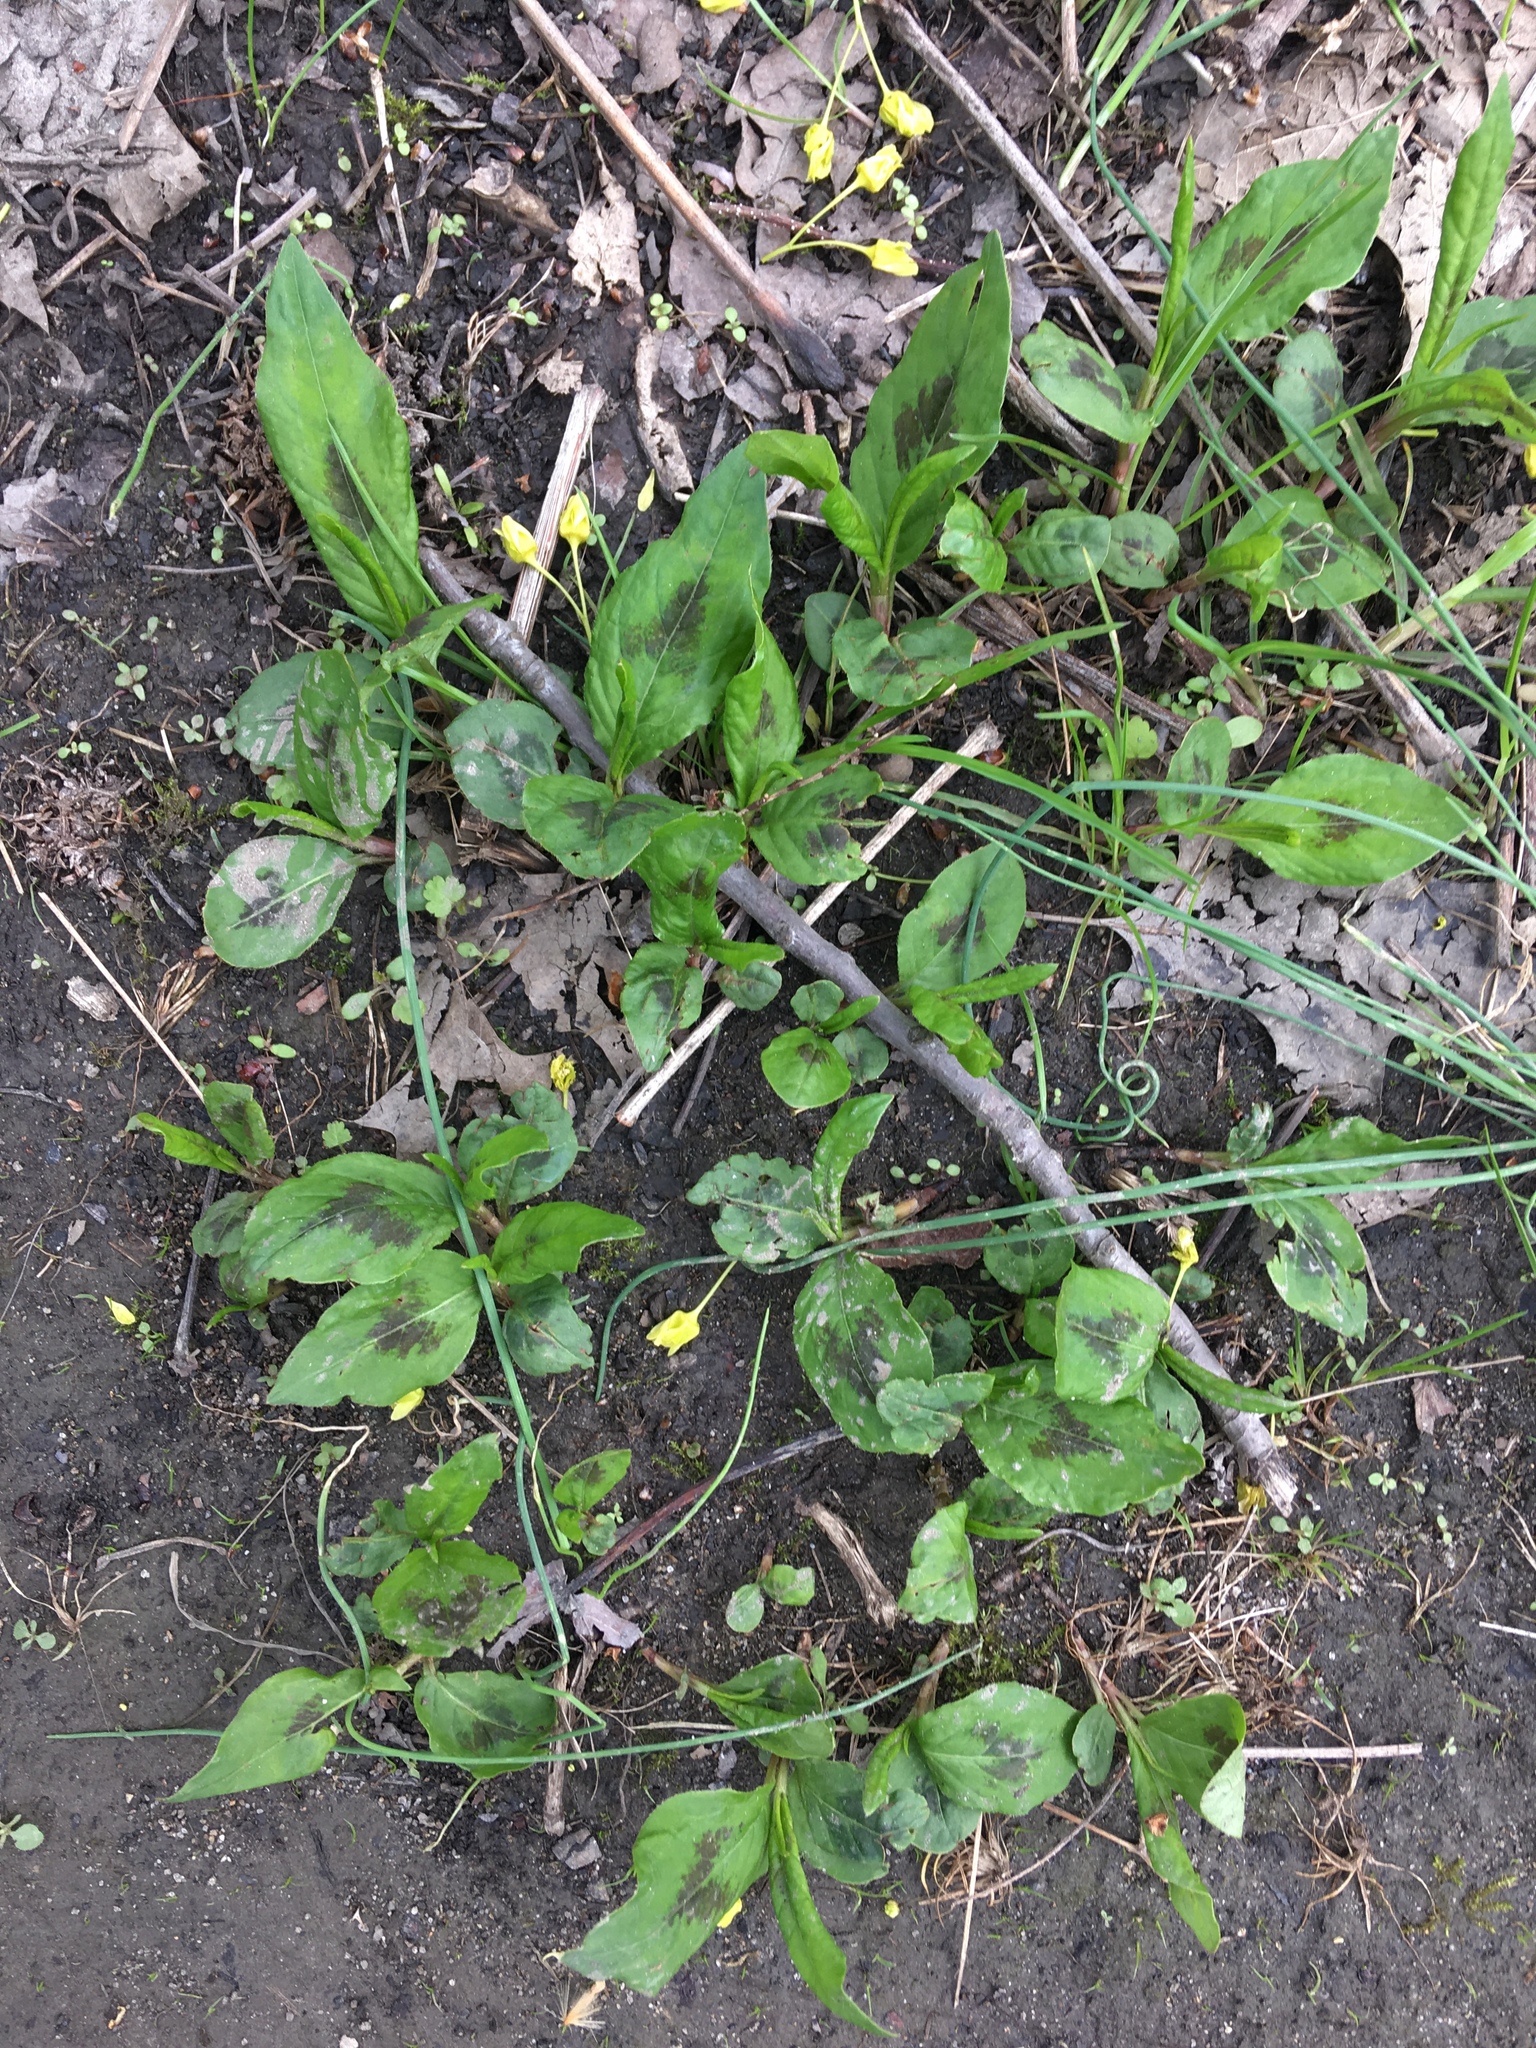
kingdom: Plantae
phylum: Tracheophyta
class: Magnoliopsida
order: Caryophyllales
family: Polygonaceae
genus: Persicaria
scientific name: Persicaria virginiana
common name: Jumpseed
